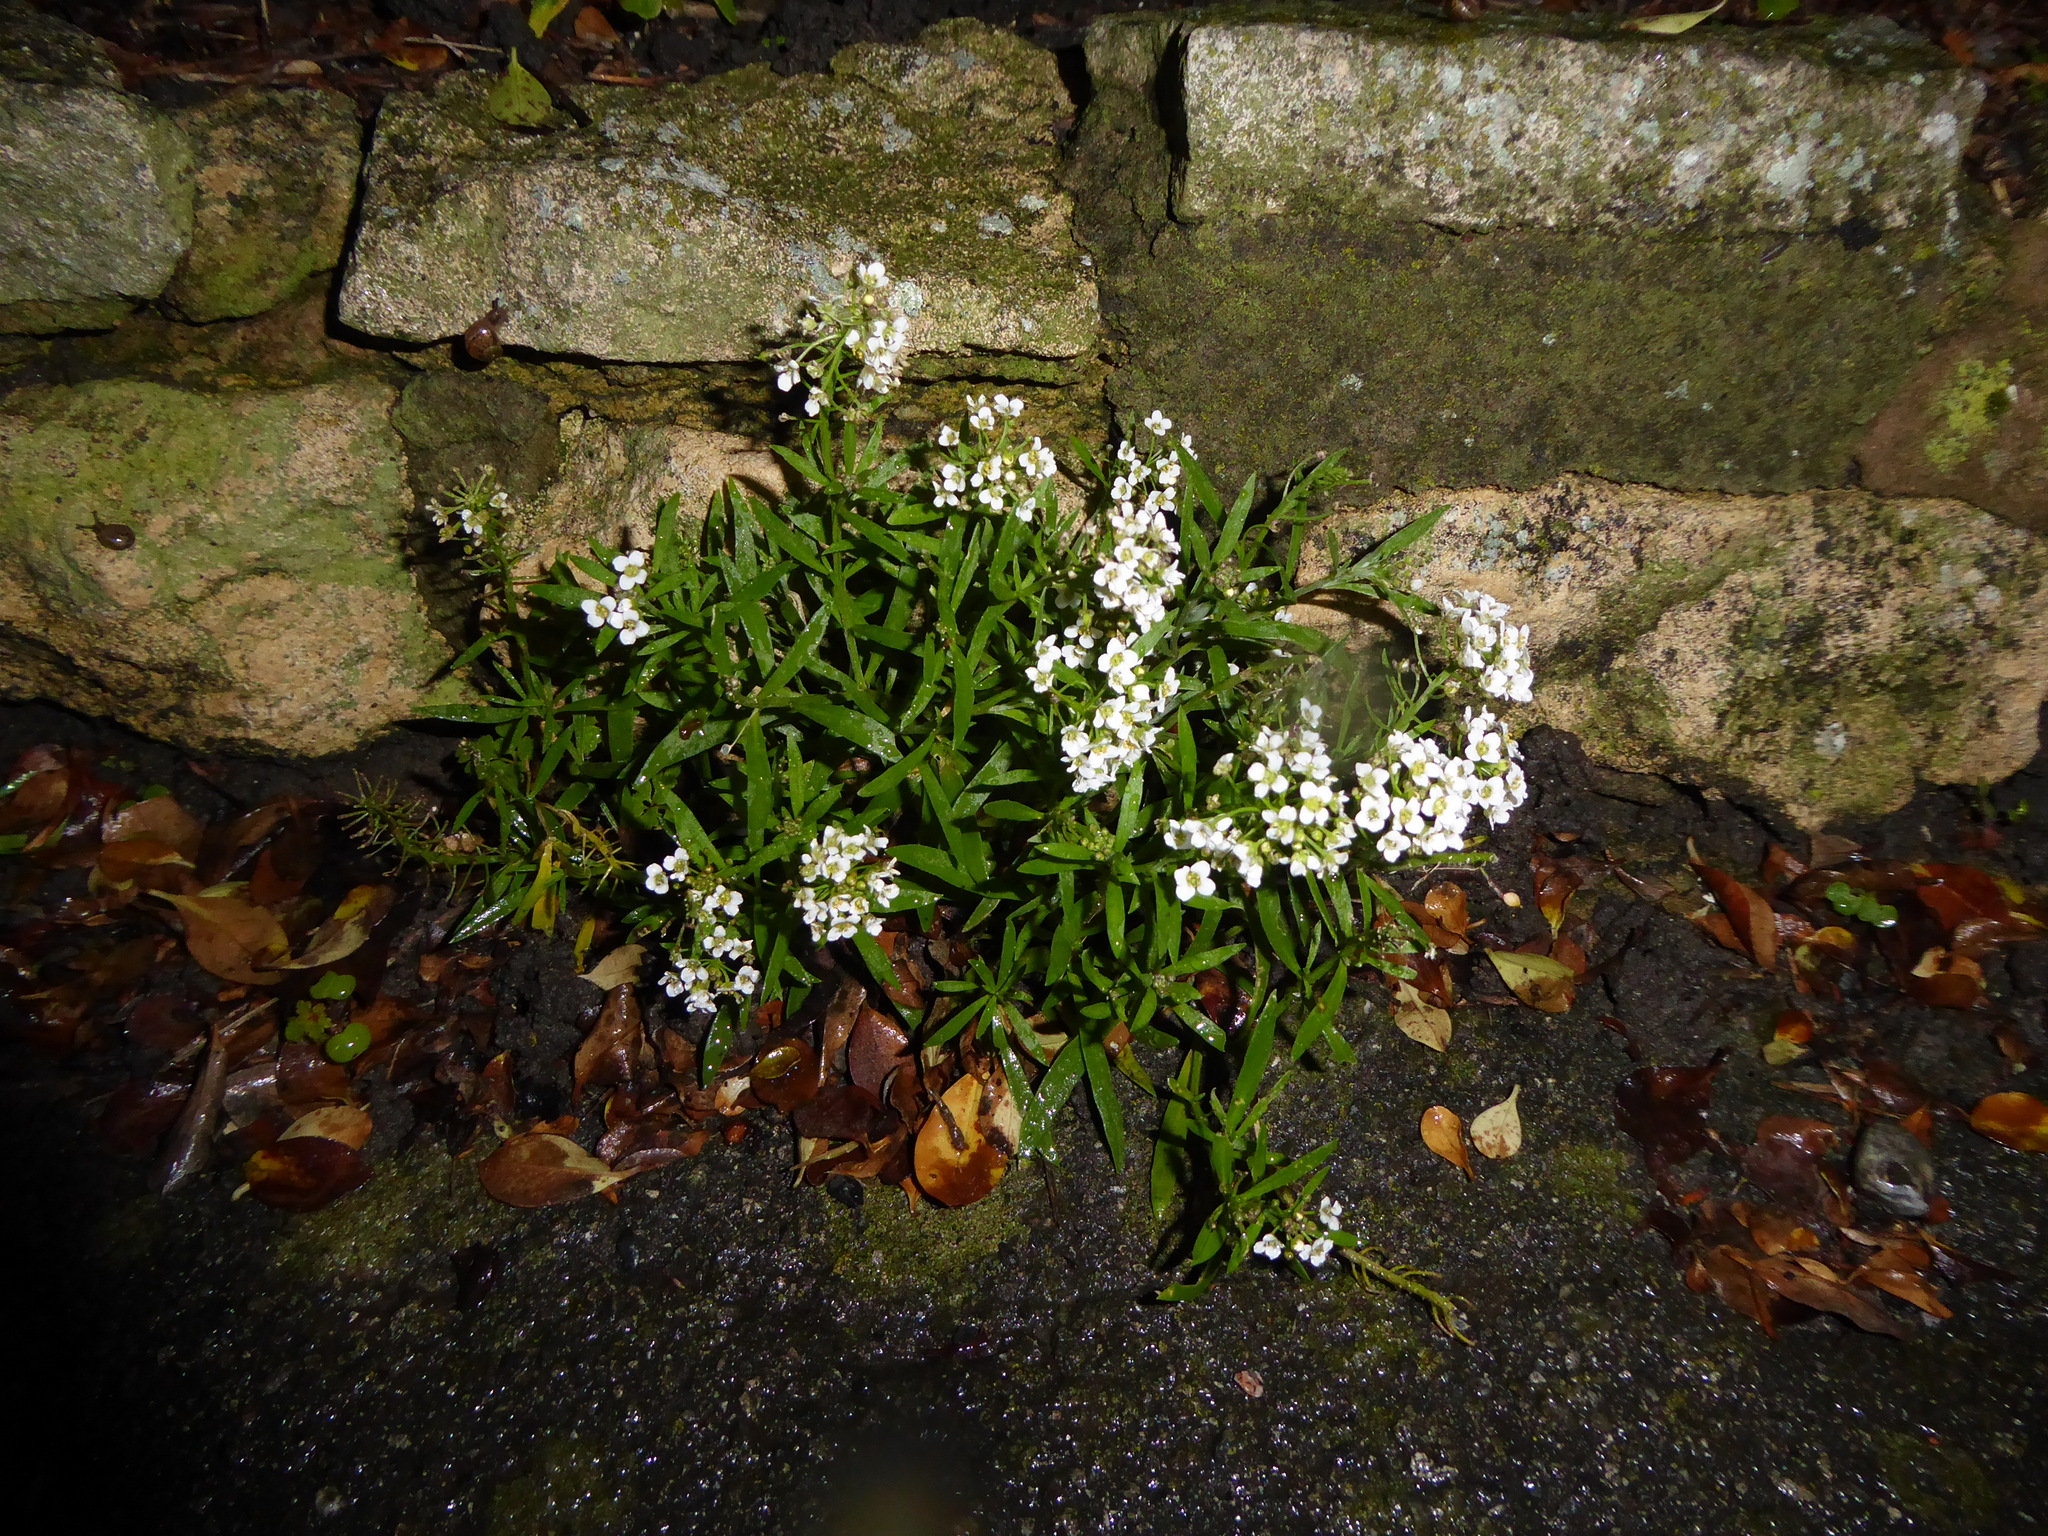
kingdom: Plantae
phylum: Tracheophyta
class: Magnoliopsida
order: Brassicales
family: Brassicaceae
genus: Lobularia
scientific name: Lobularia maritima
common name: Sweet alison
